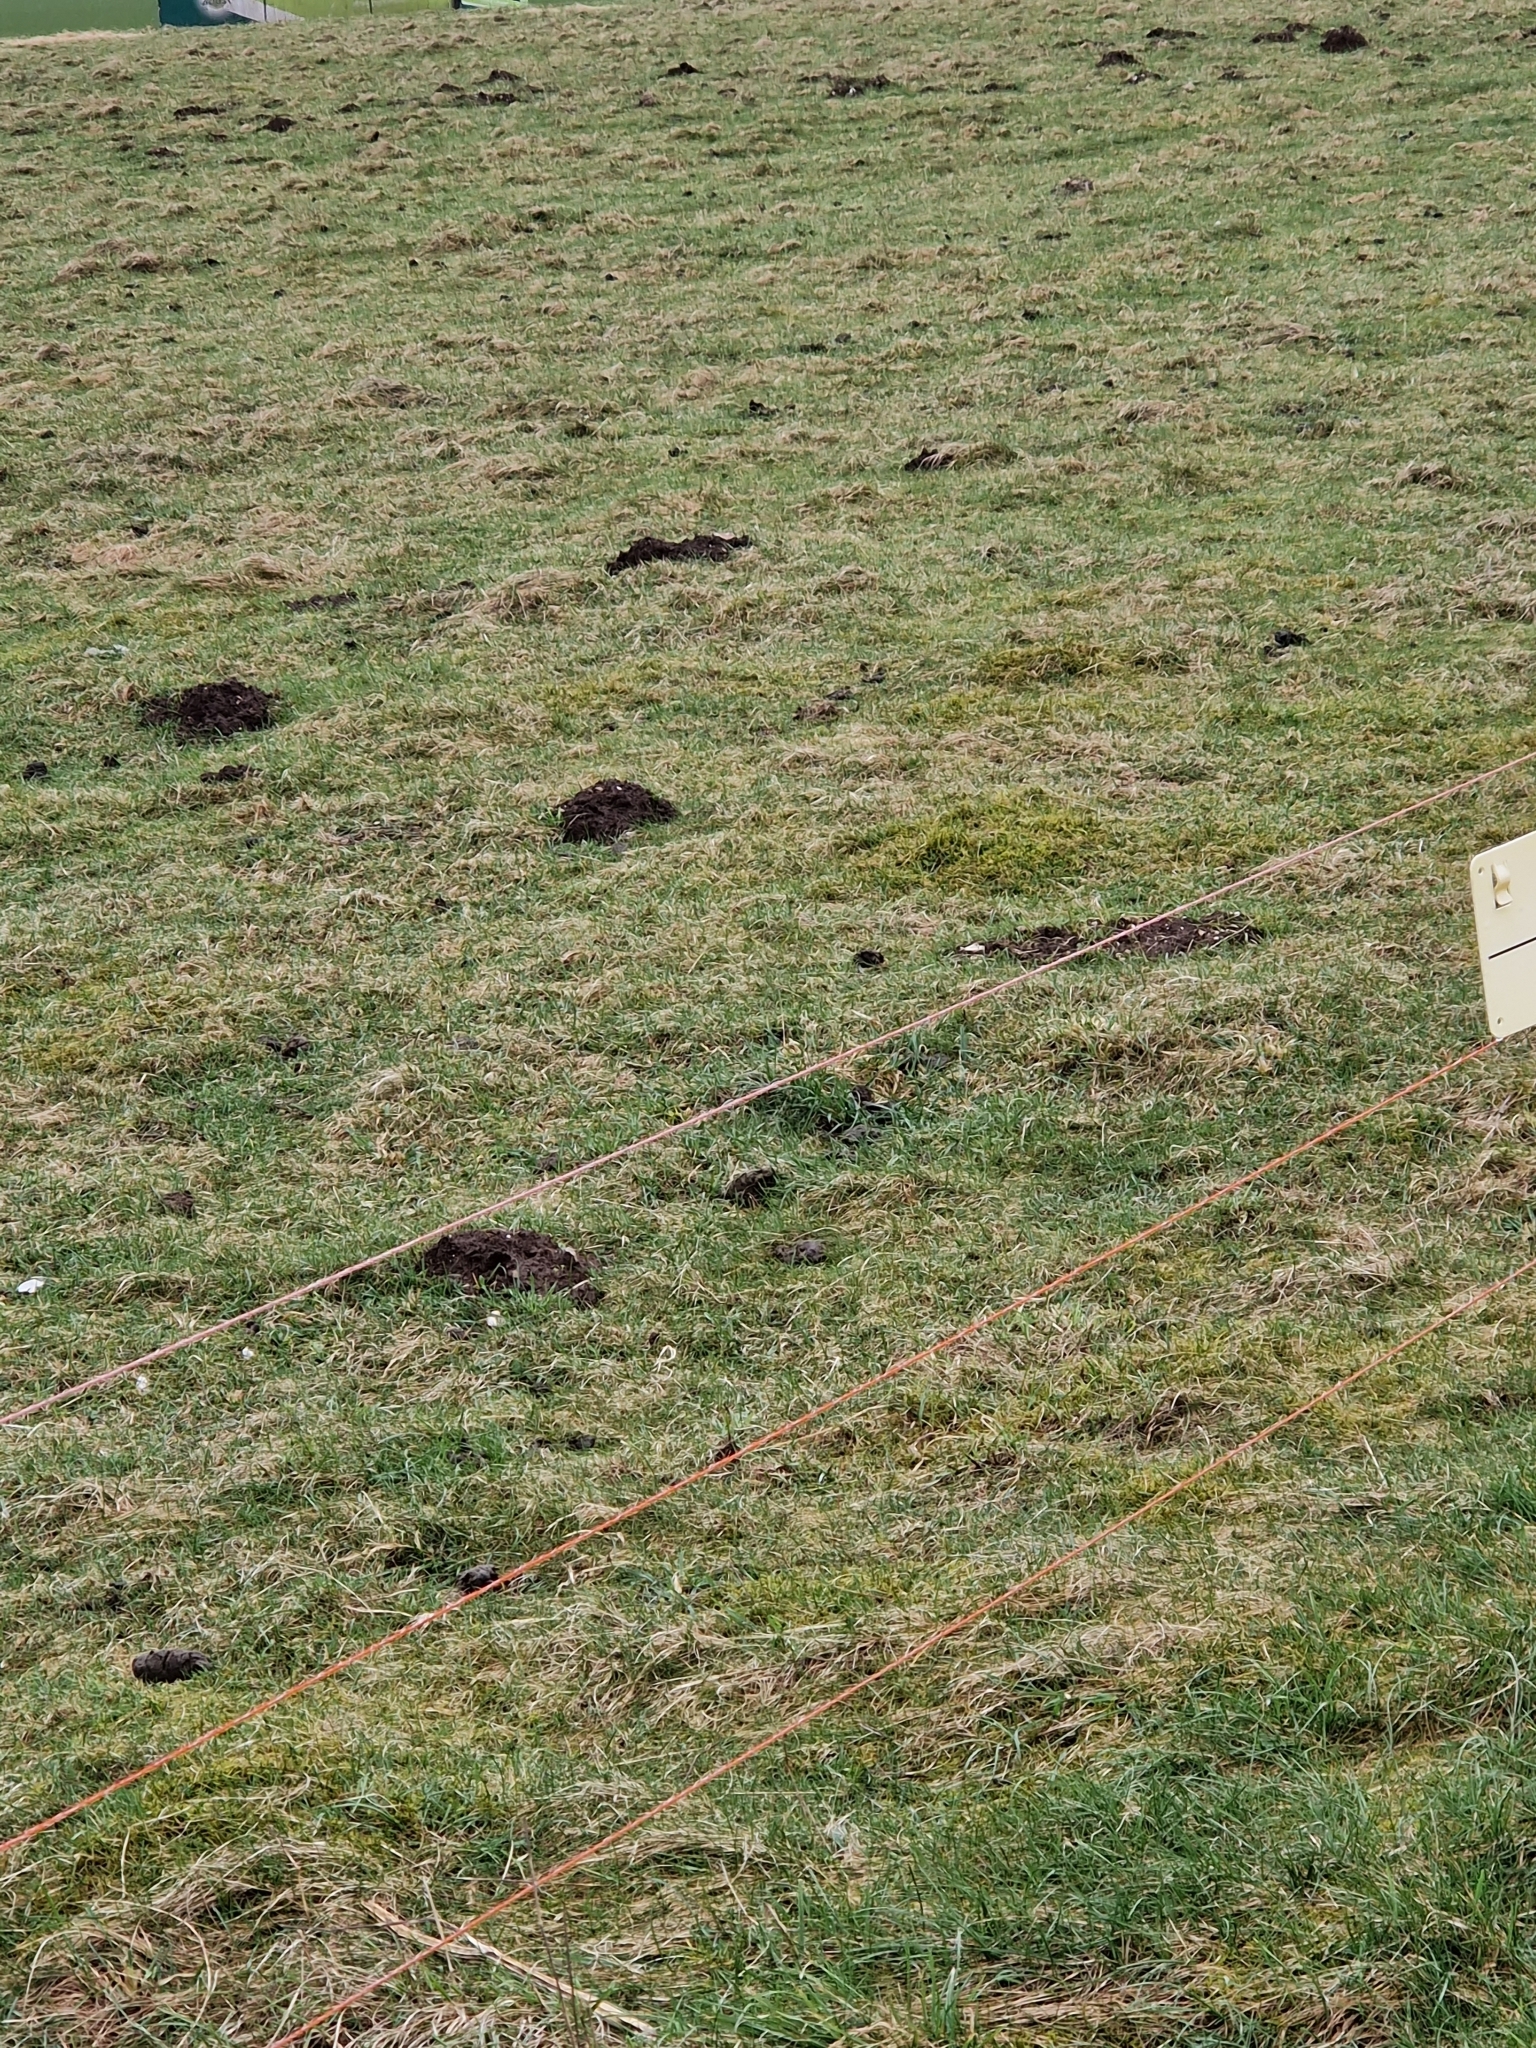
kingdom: Animalia
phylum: Chordata
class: Mammalia
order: Soricomorpha
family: Talpidae
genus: Talpa
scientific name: Talpa europaea
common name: European mole
